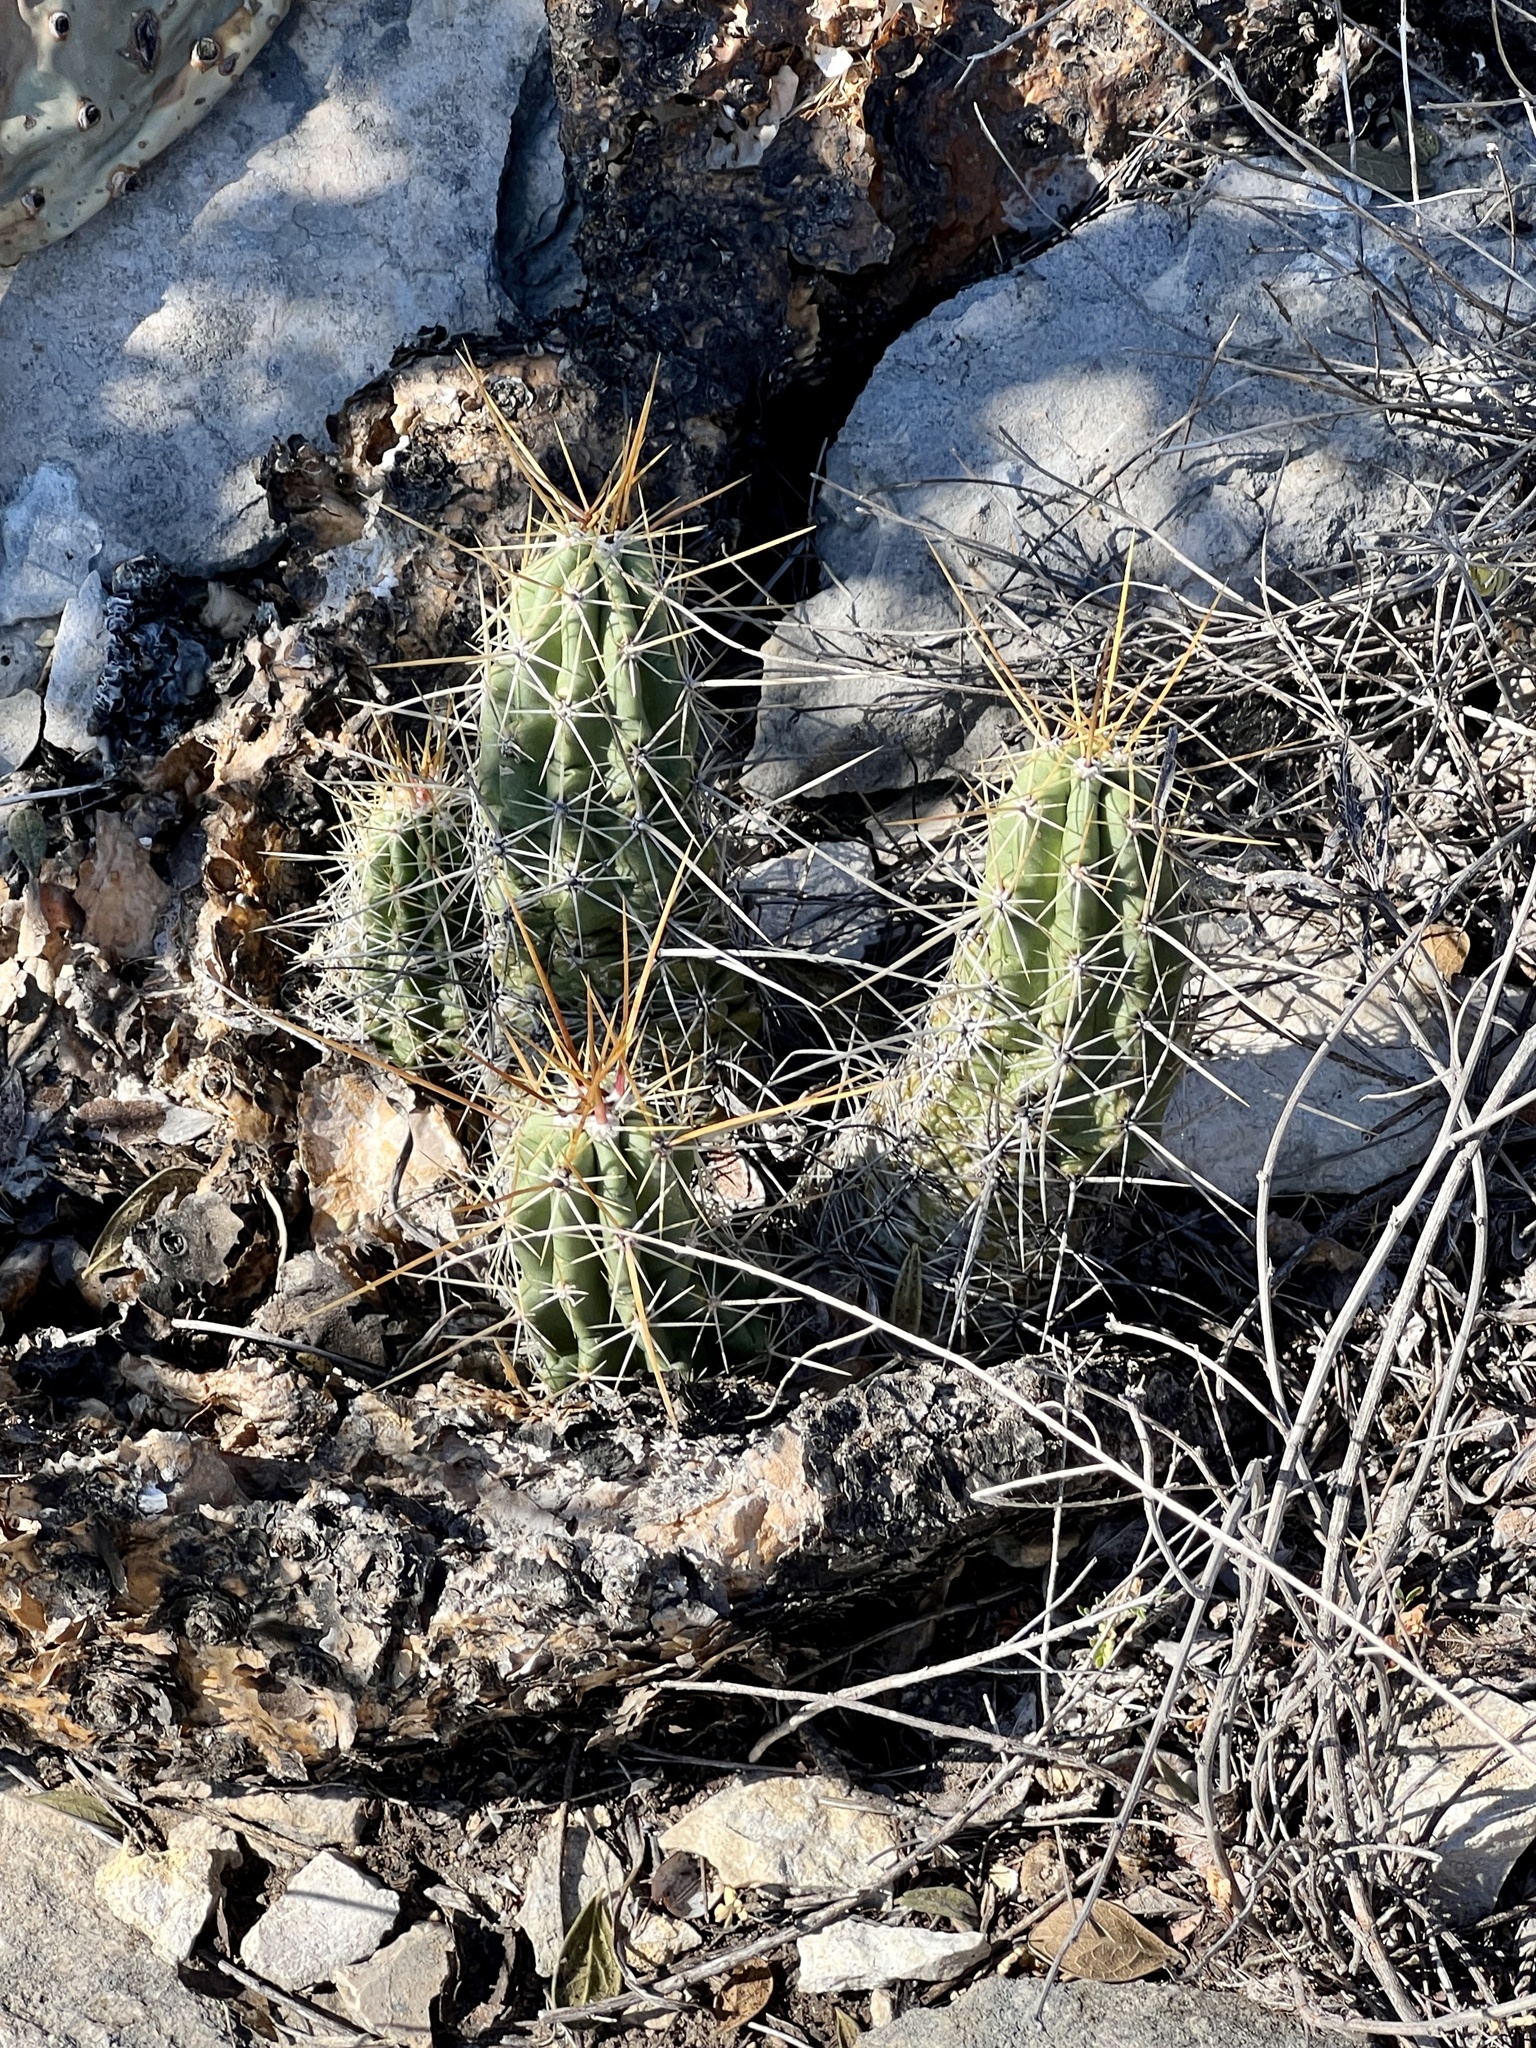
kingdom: Plantae
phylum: Tracheophyta
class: Magnoliopsida
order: Caryophyllales
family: Cactaceae
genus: Echinocereus
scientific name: Echinocereus enneacanthus
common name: Pitaya
